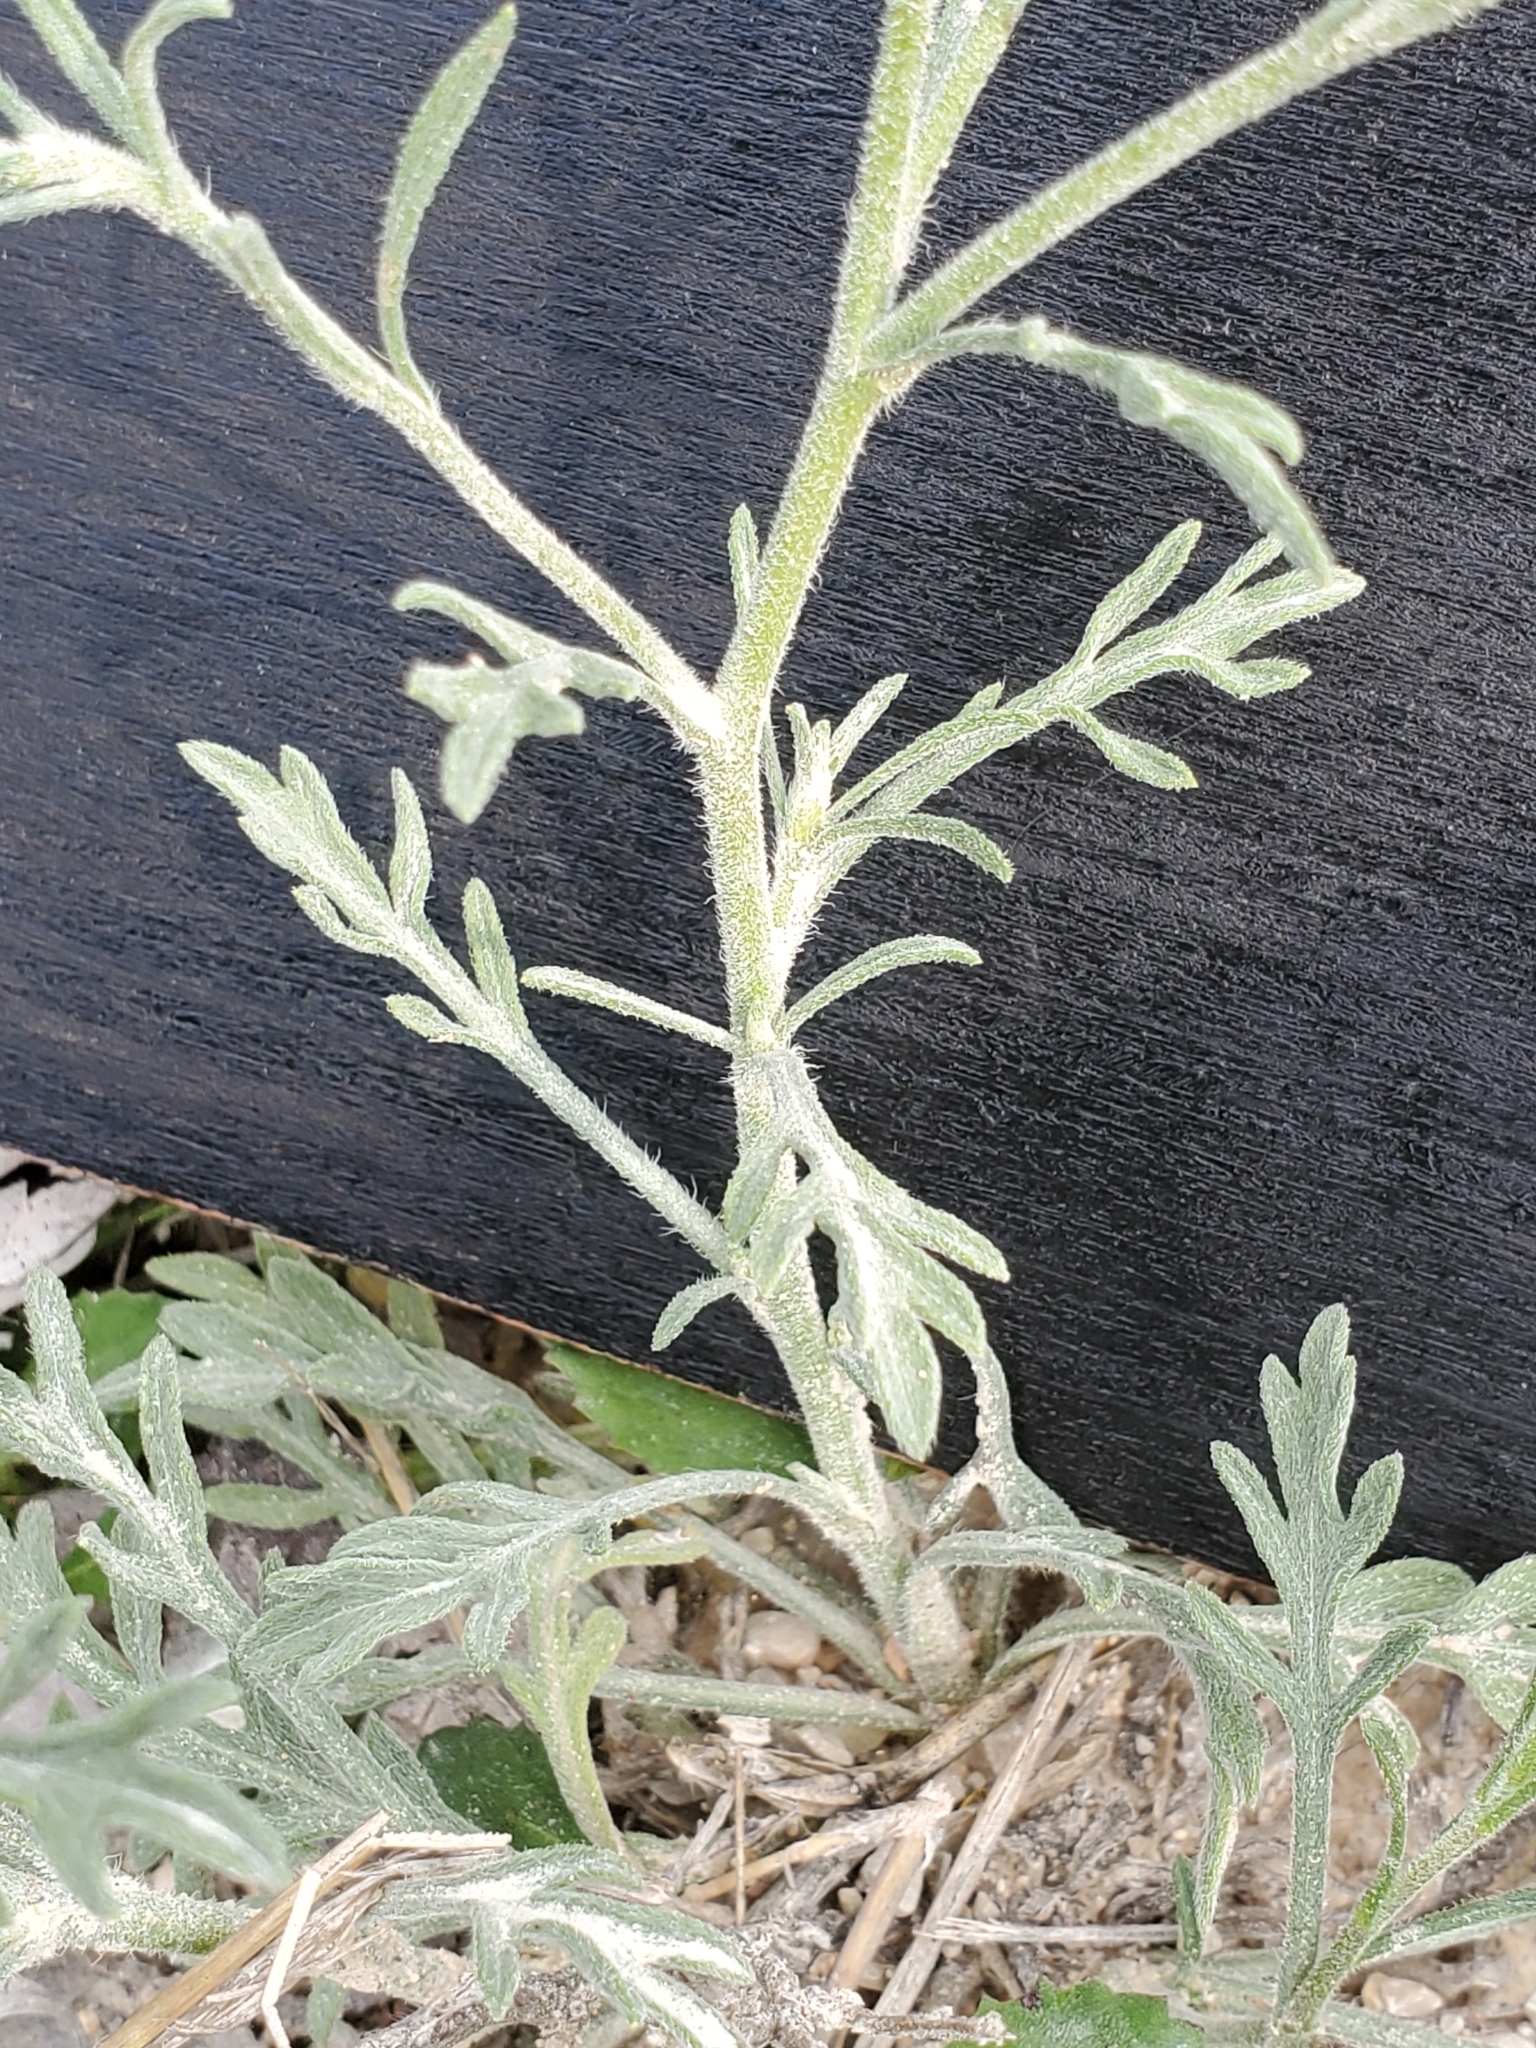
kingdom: Plantae
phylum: Tracheophyta
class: Magnoliopsida
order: Asterales
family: Asteraceae
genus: Aphanostephus
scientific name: Aphanostephus ramosissimus
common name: Plains lazy daisy
